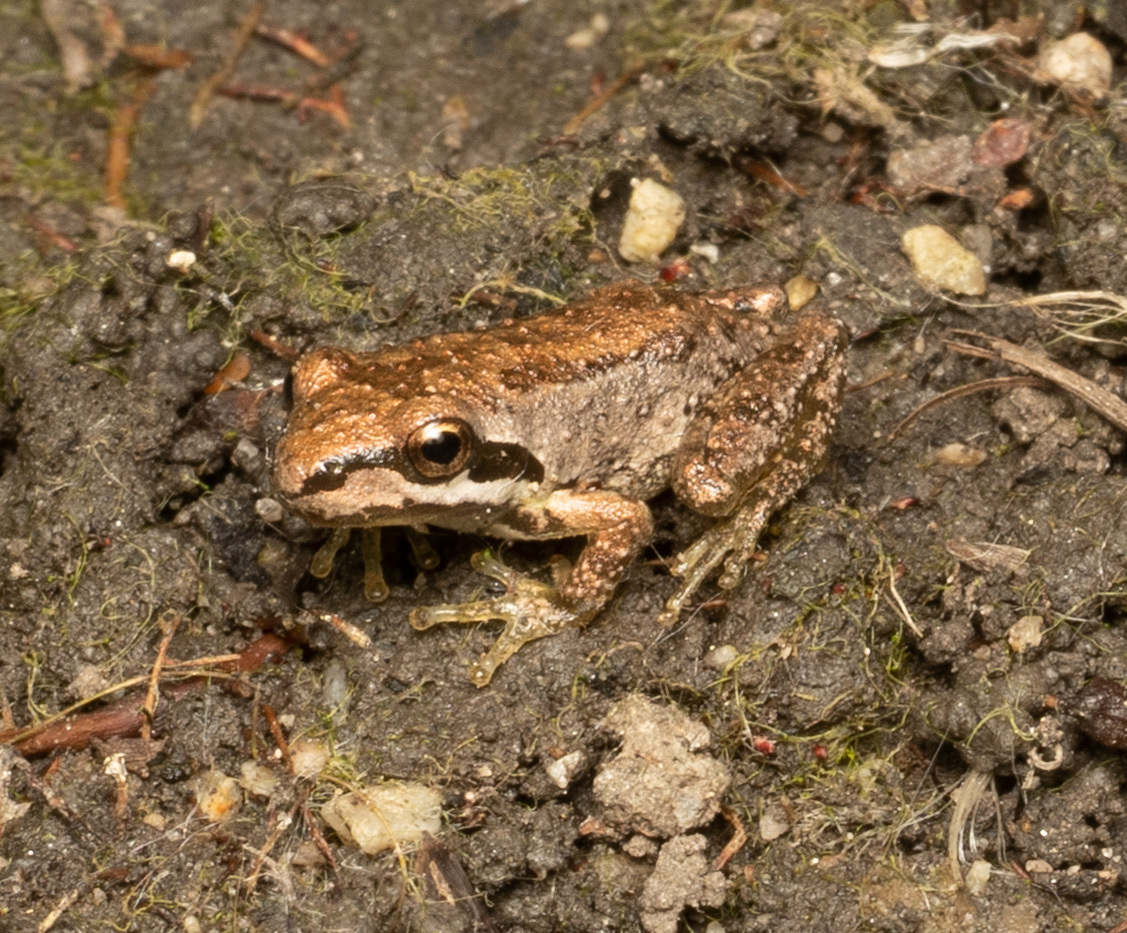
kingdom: Animalia
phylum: Chordata
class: Amphibia
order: Anura
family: Hylidae
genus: Pseudacris
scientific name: Pseudacris regilla
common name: Pacific chorus frog
